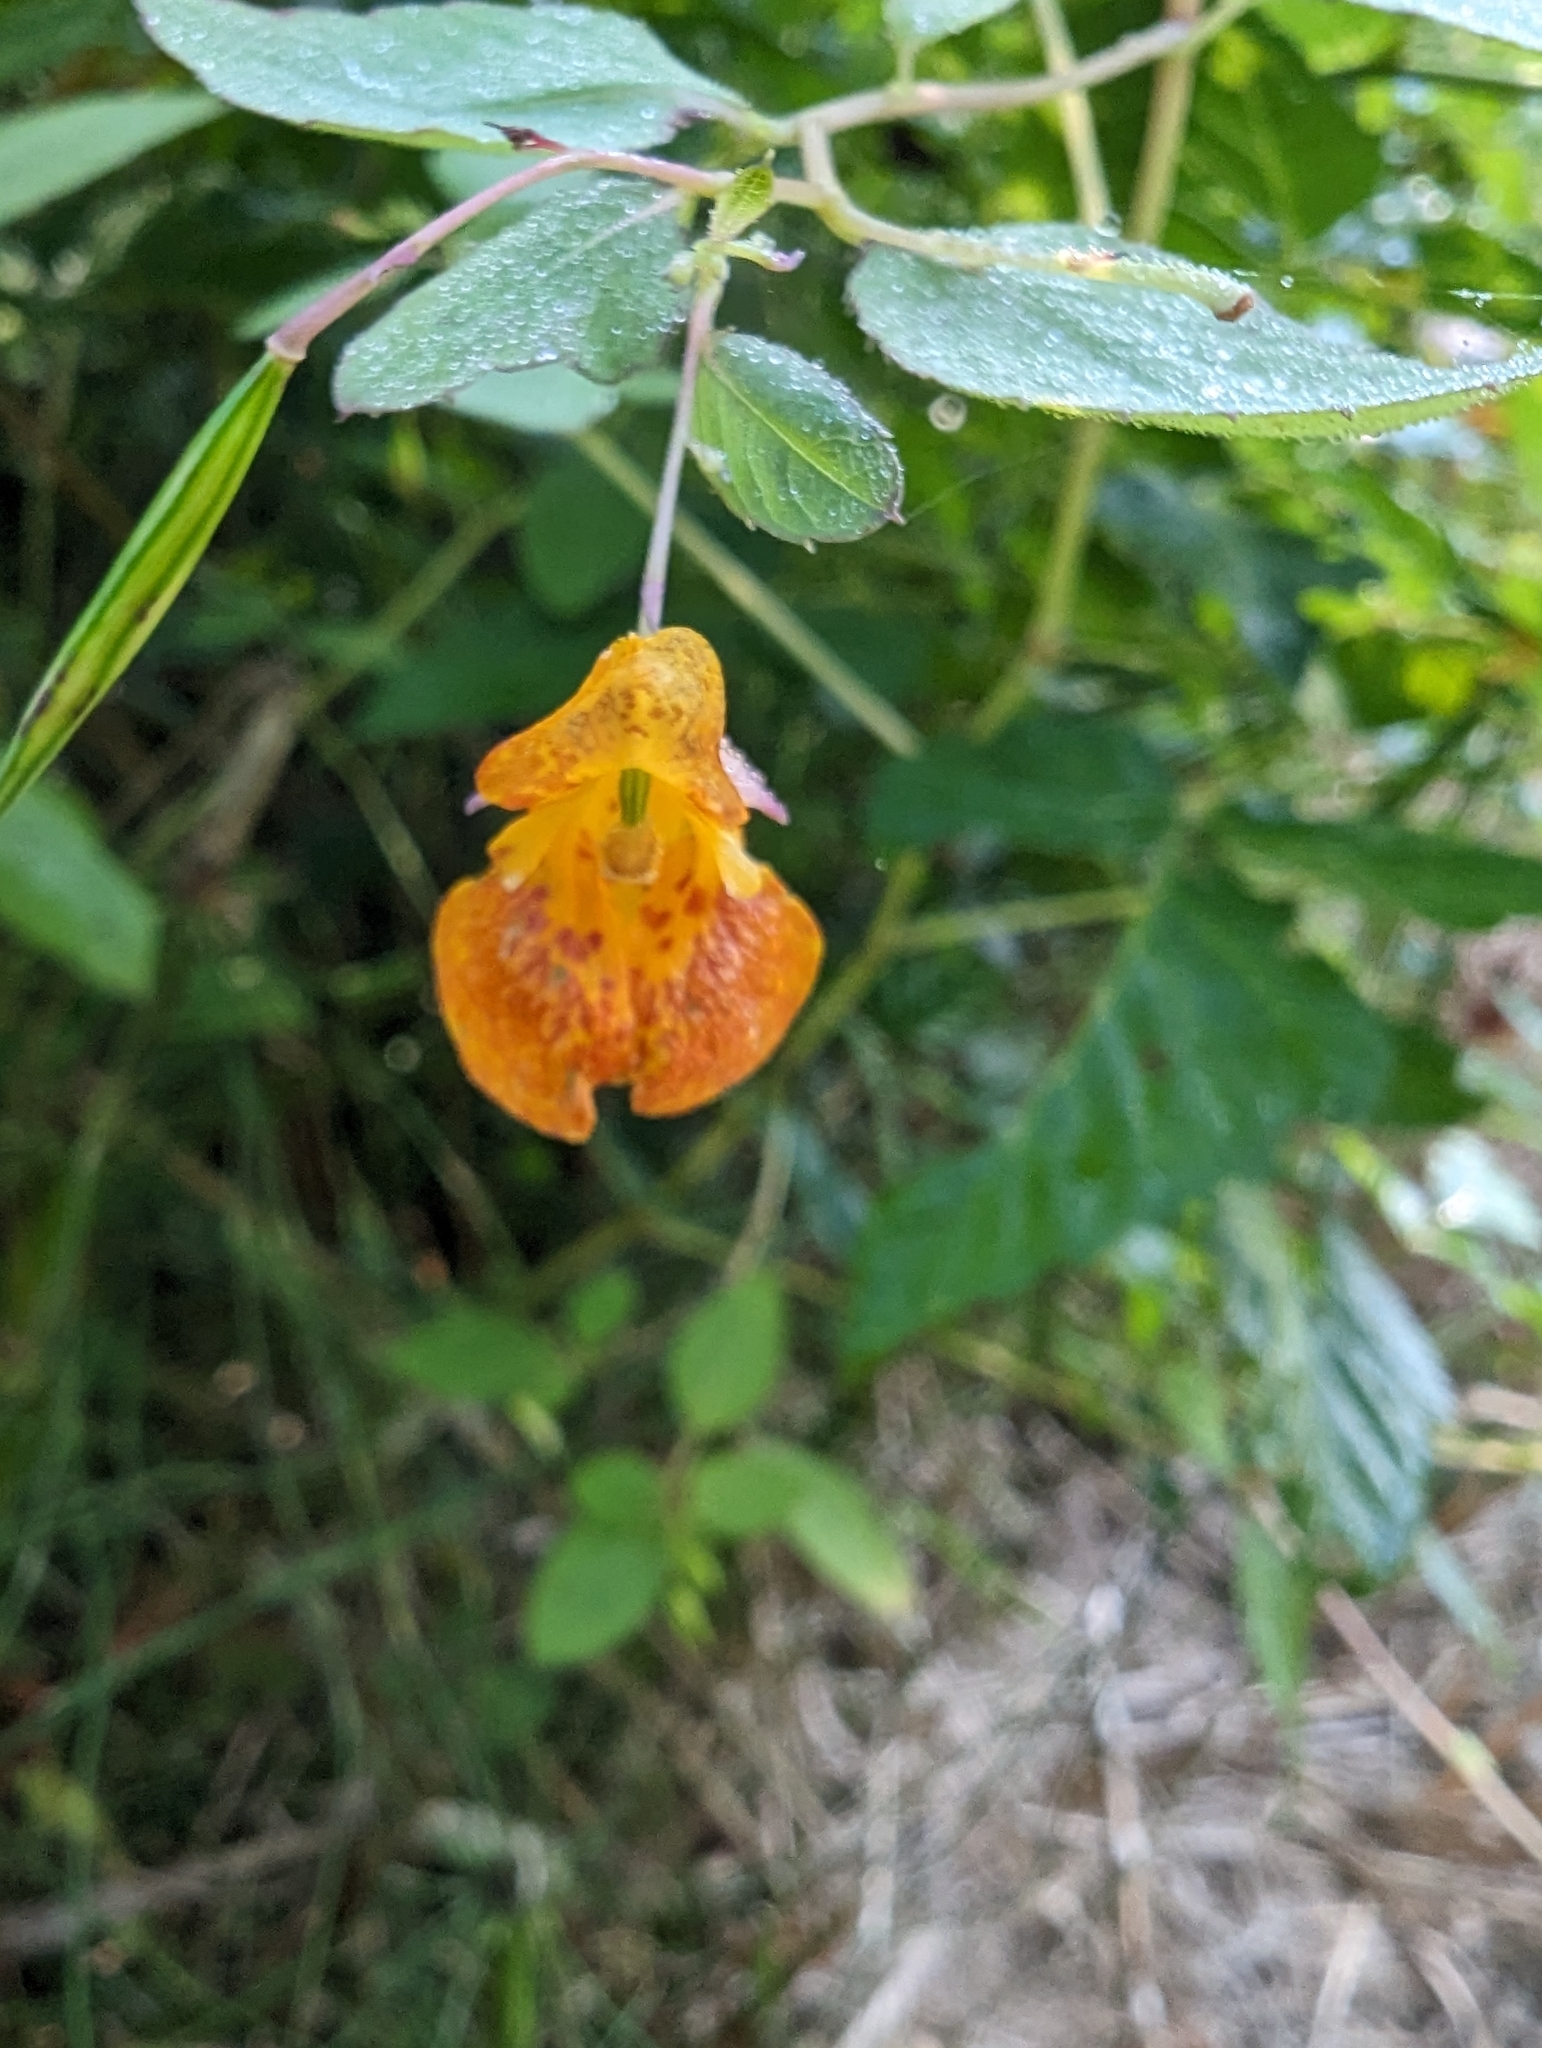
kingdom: Plantae
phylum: Tracheophyta
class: Magnoliopsida
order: Ericales
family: Balsaminaceae
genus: Impatiens
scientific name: Impatiens capensis
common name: Orange balsam
